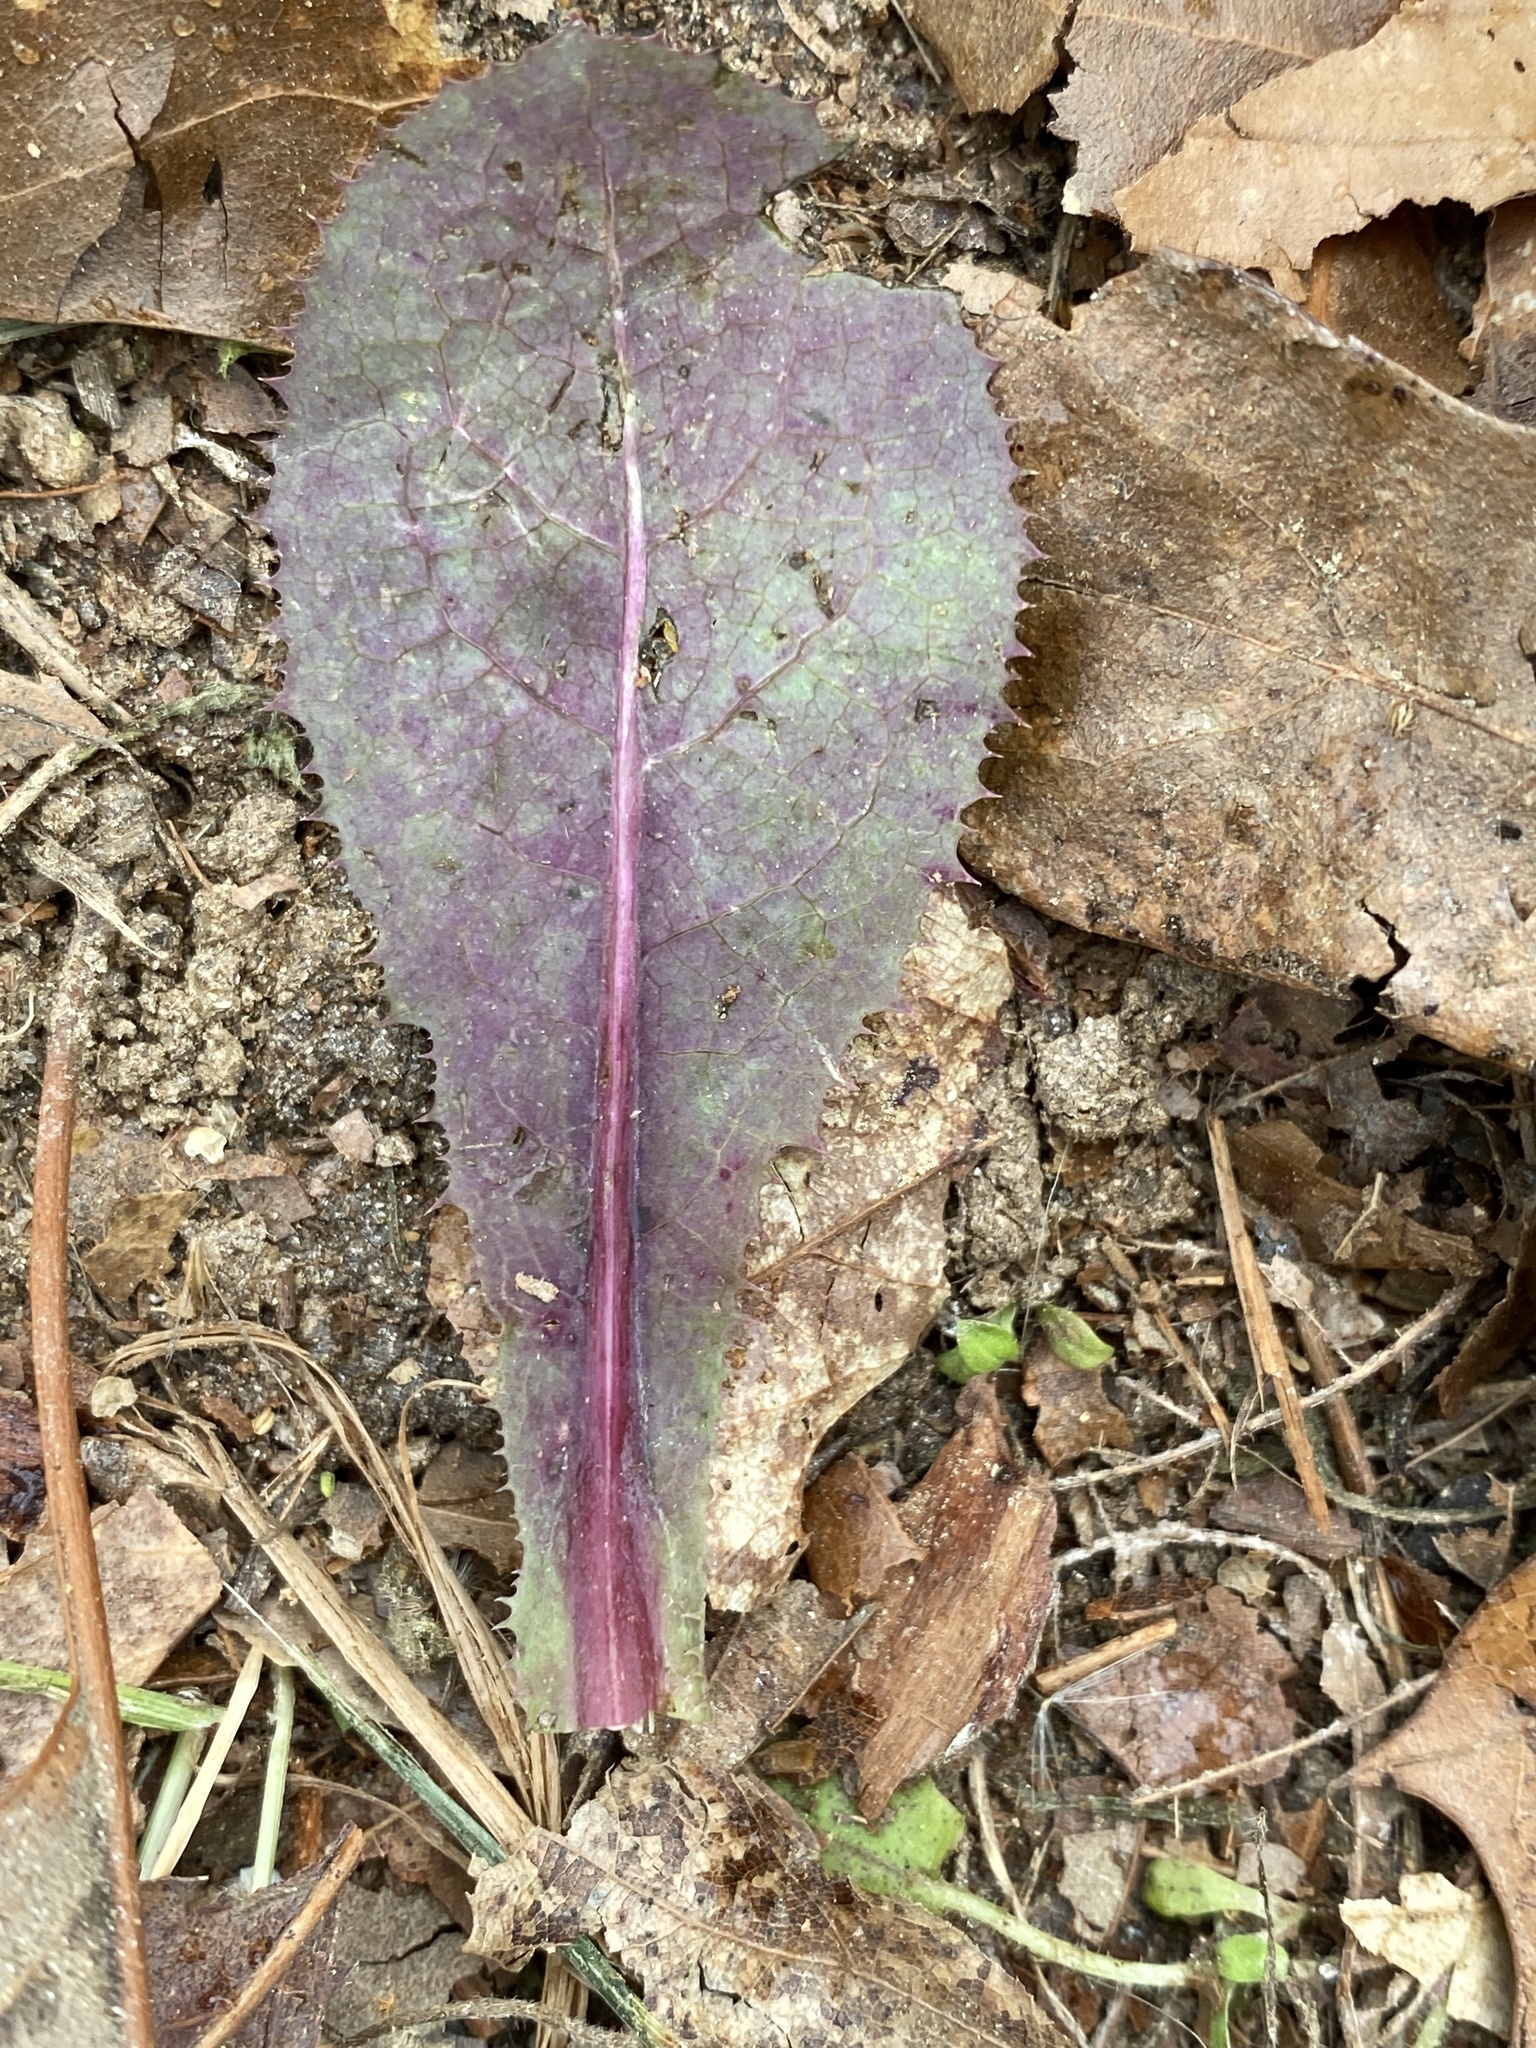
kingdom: Plantae
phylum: Tracheophyta
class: Magnoliopsida
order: Asterales
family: Asteraceae
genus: Hieracium
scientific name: Hieracium venosum
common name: Rattlesnake hawkweed
